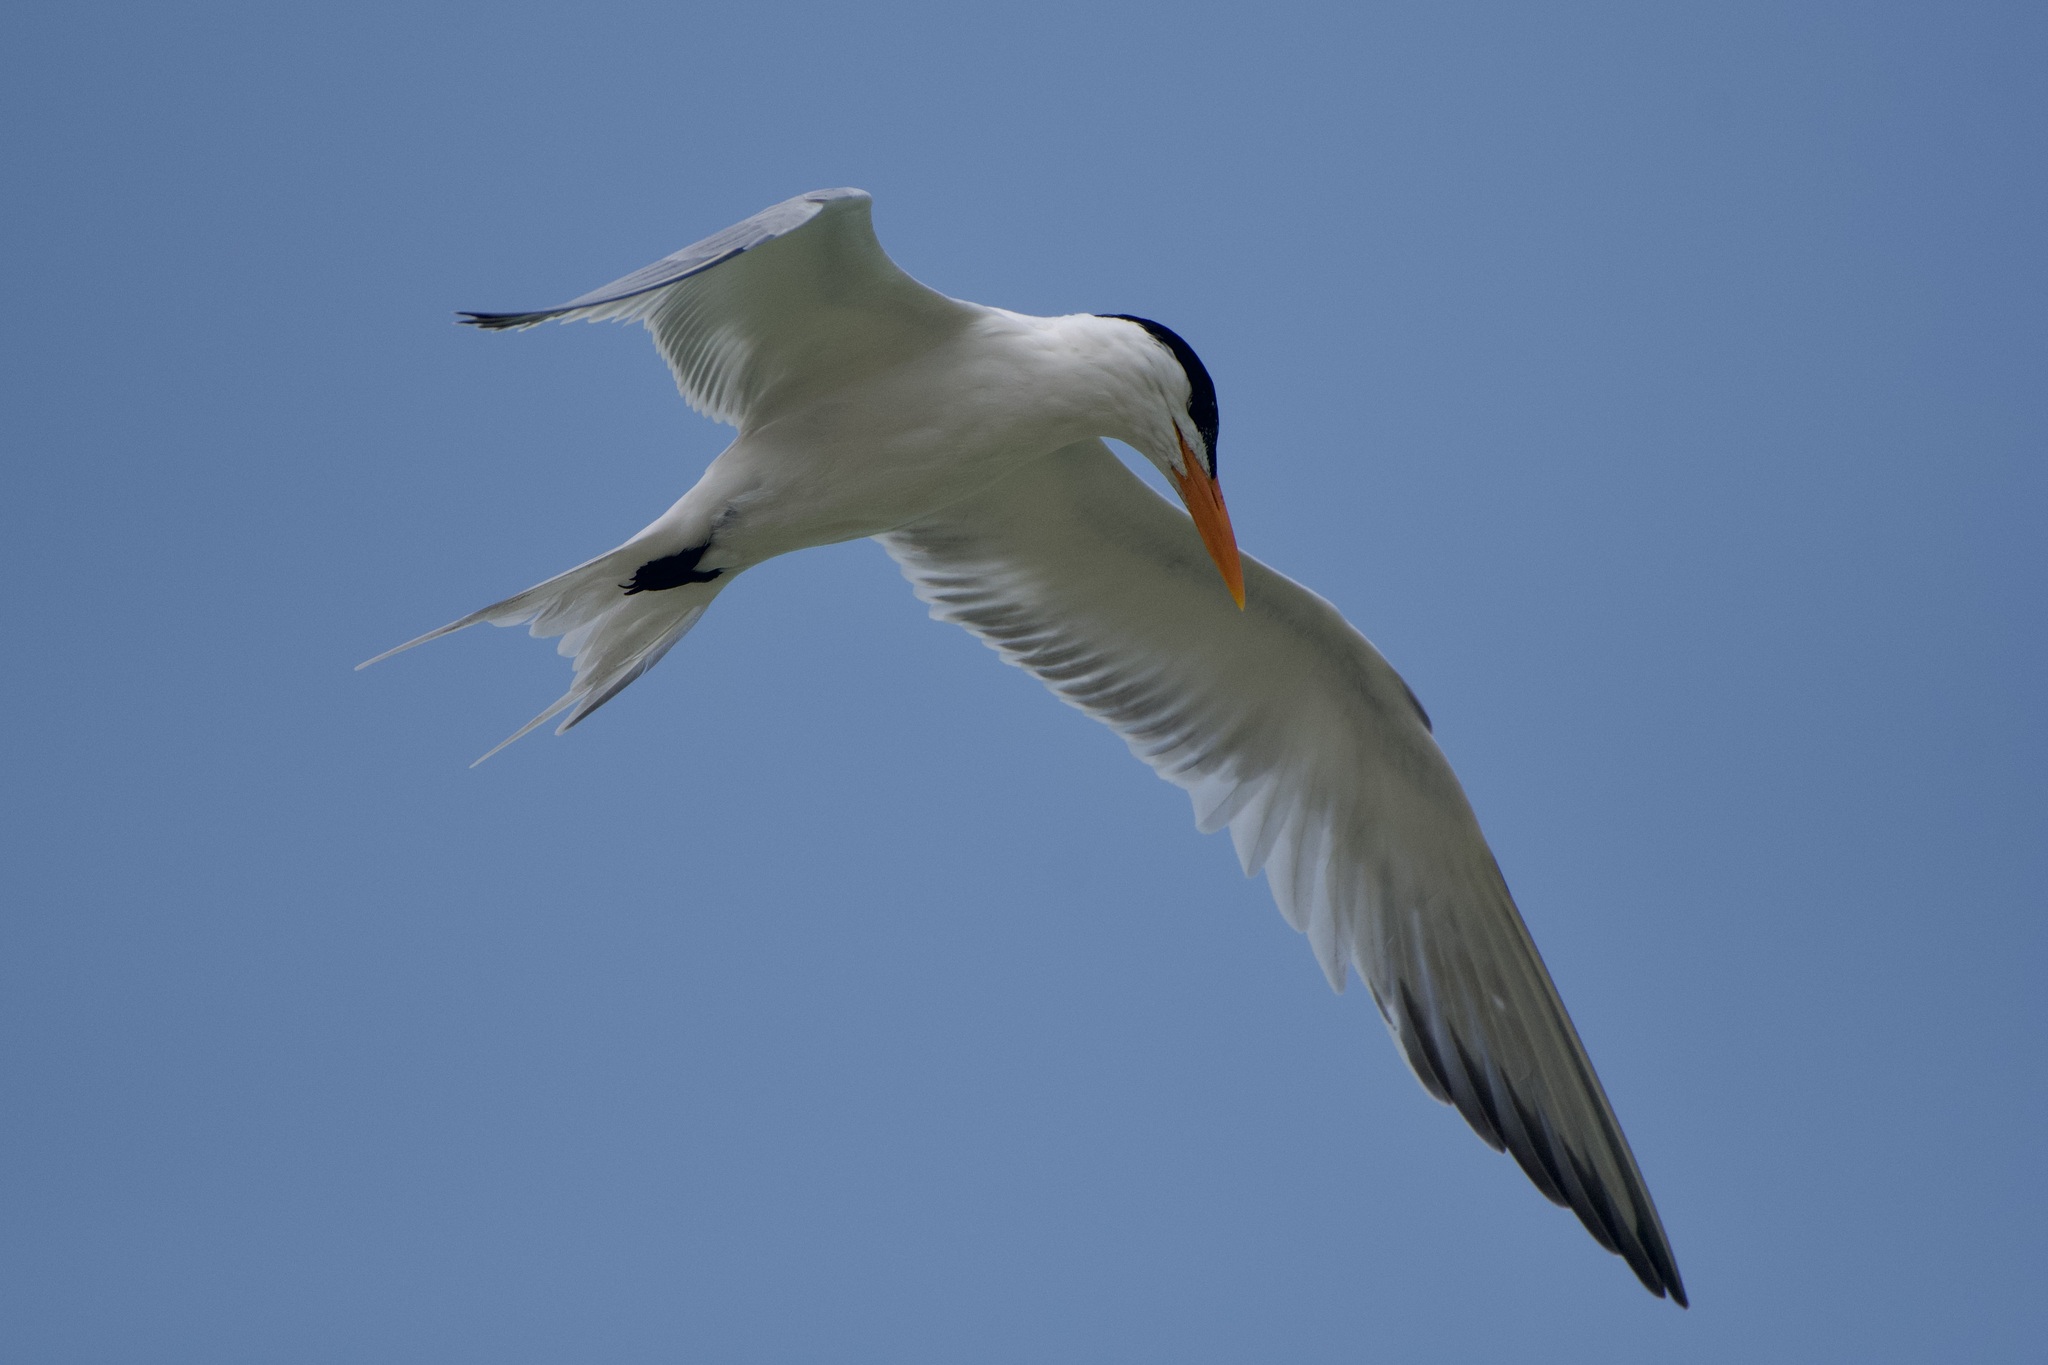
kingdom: Animalia
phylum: Chordata
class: Aves
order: Charadriiformes
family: Laridae
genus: Thalasseus
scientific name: Thalasseus maximus
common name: Royal tern
